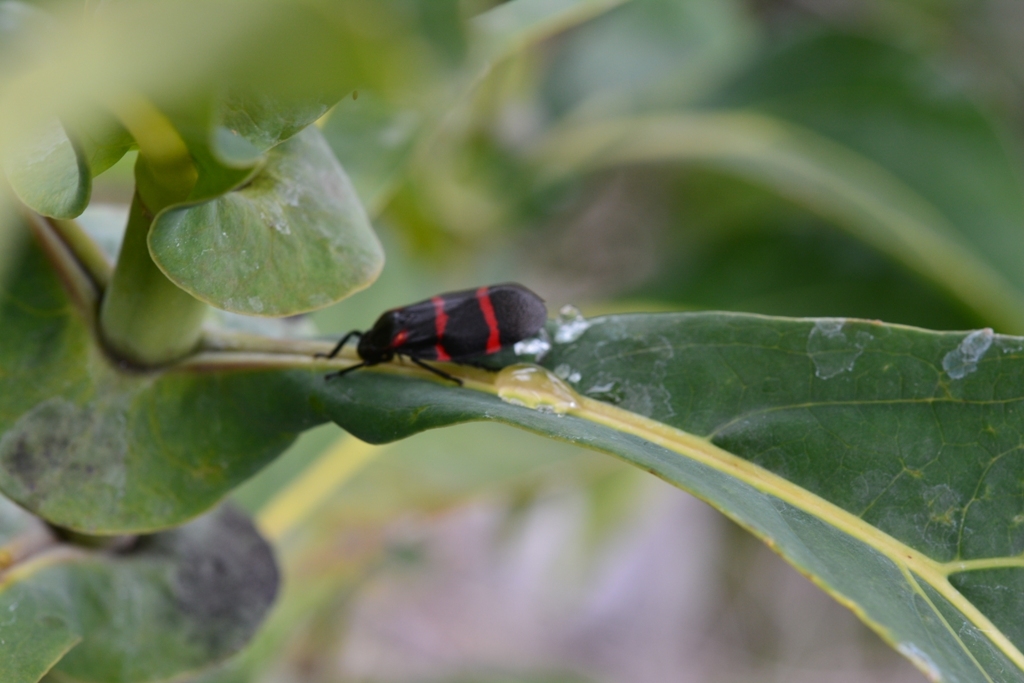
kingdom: Animalia
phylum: Arthropoda
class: Insecta
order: Hemiptera
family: Cercopidae
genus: Huaina
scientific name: Huaina inca
